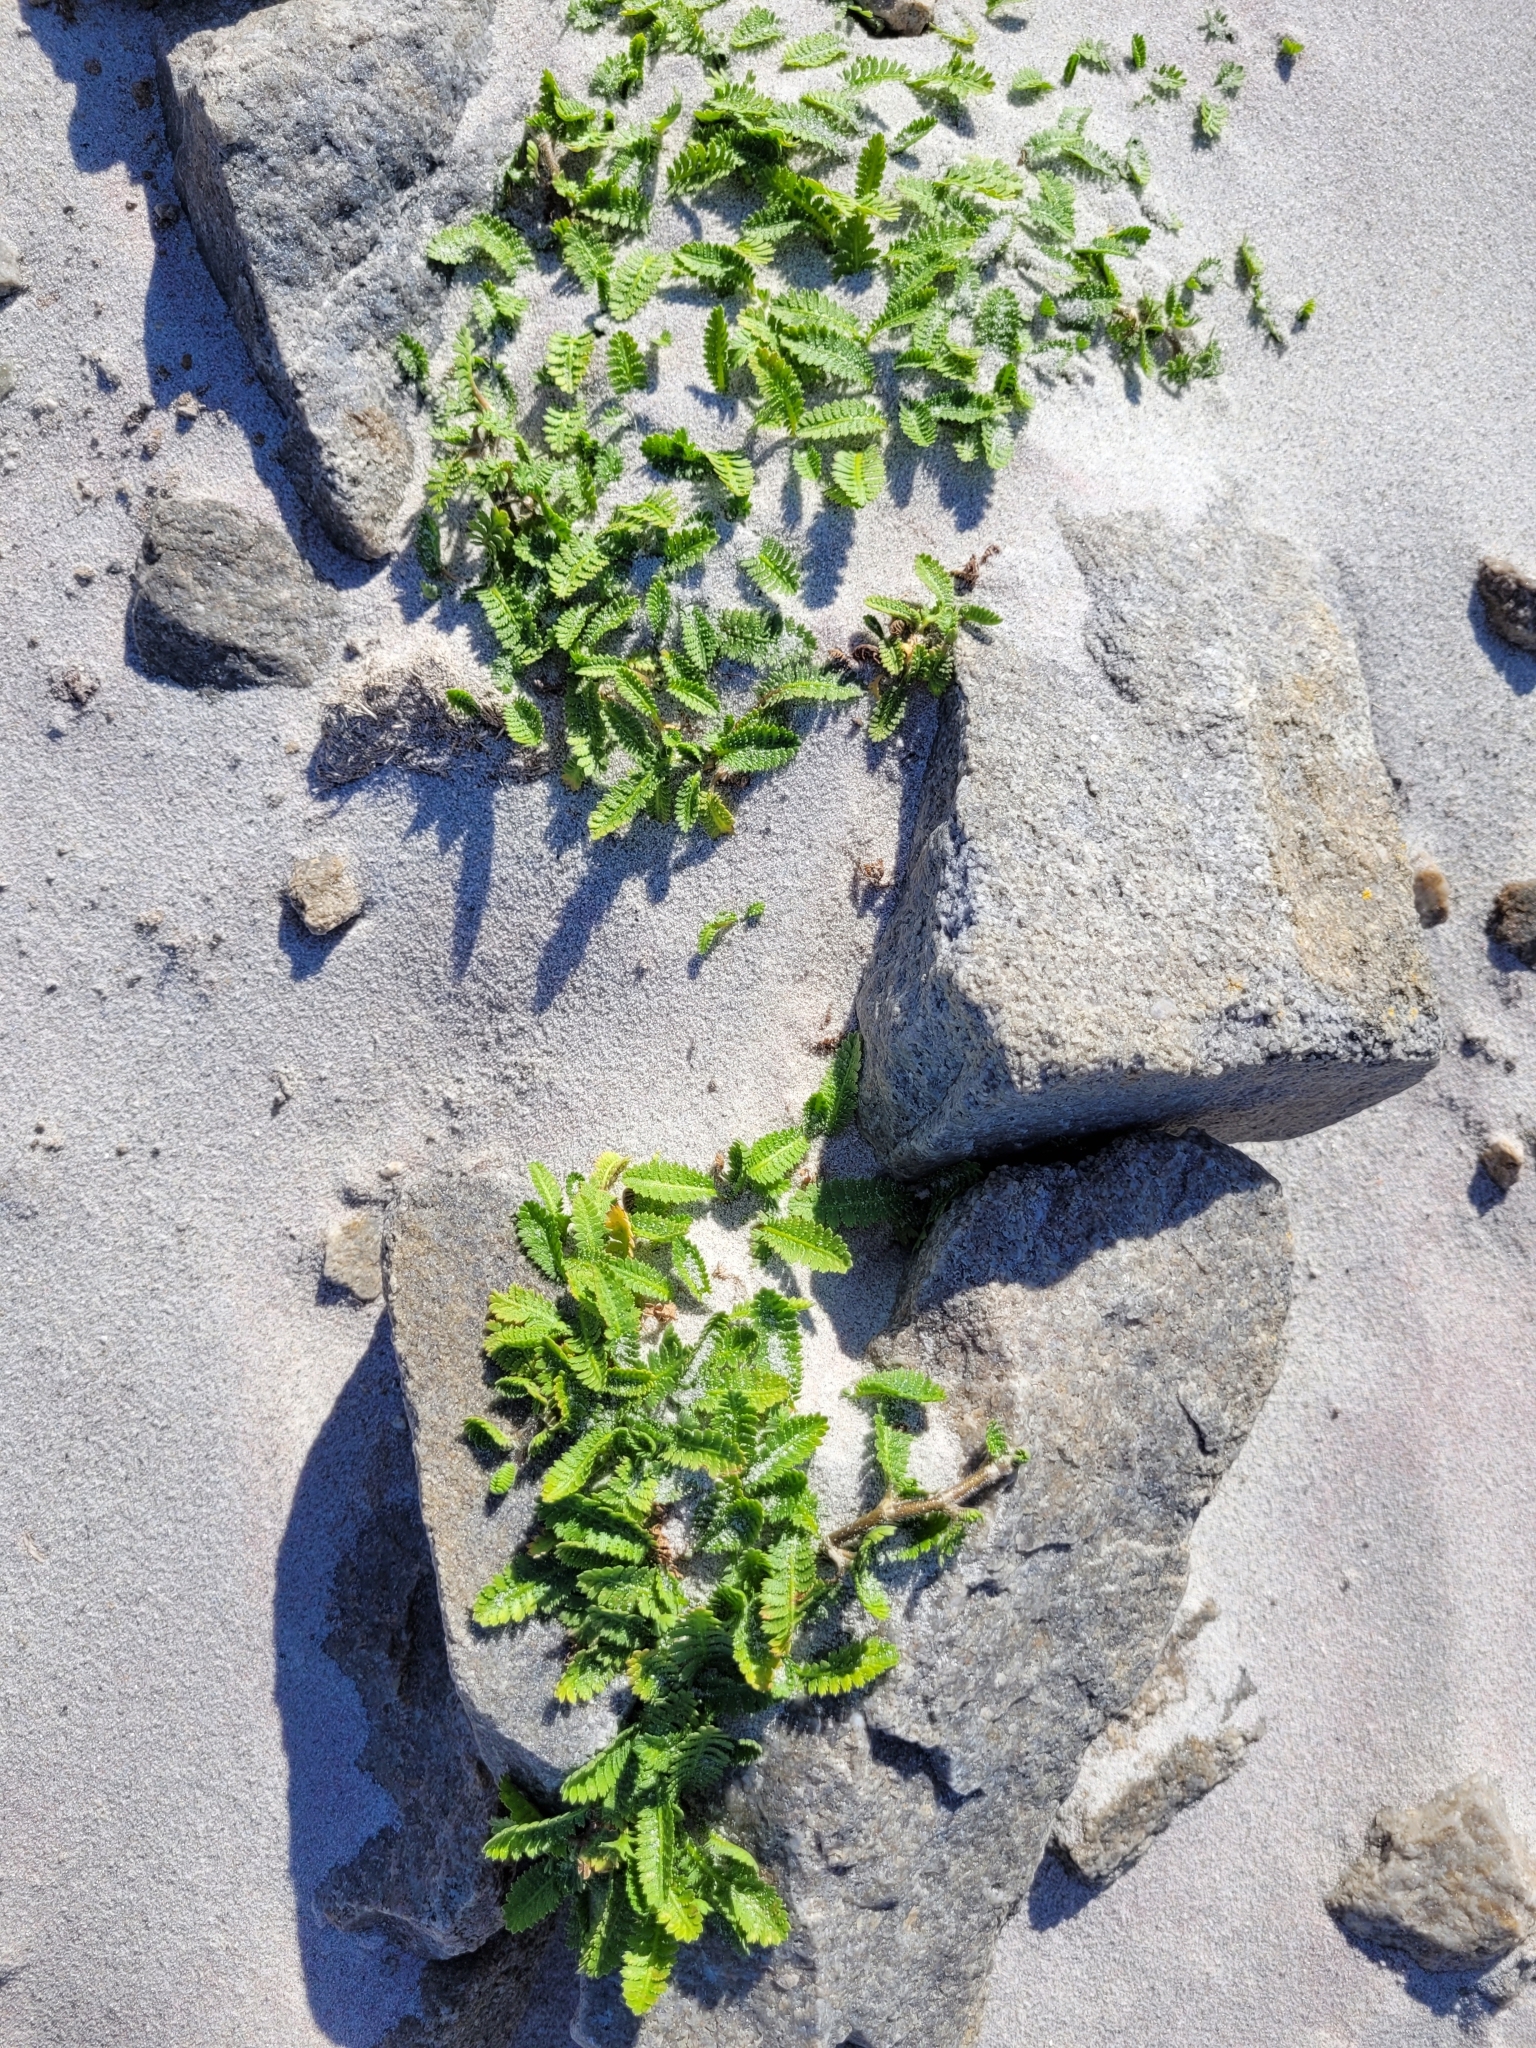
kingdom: Plantae
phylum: Tracheophyta
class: Magnoliopsida
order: Asterales
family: Asteraceae
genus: Leptinella
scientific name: Leptinella scariosa
